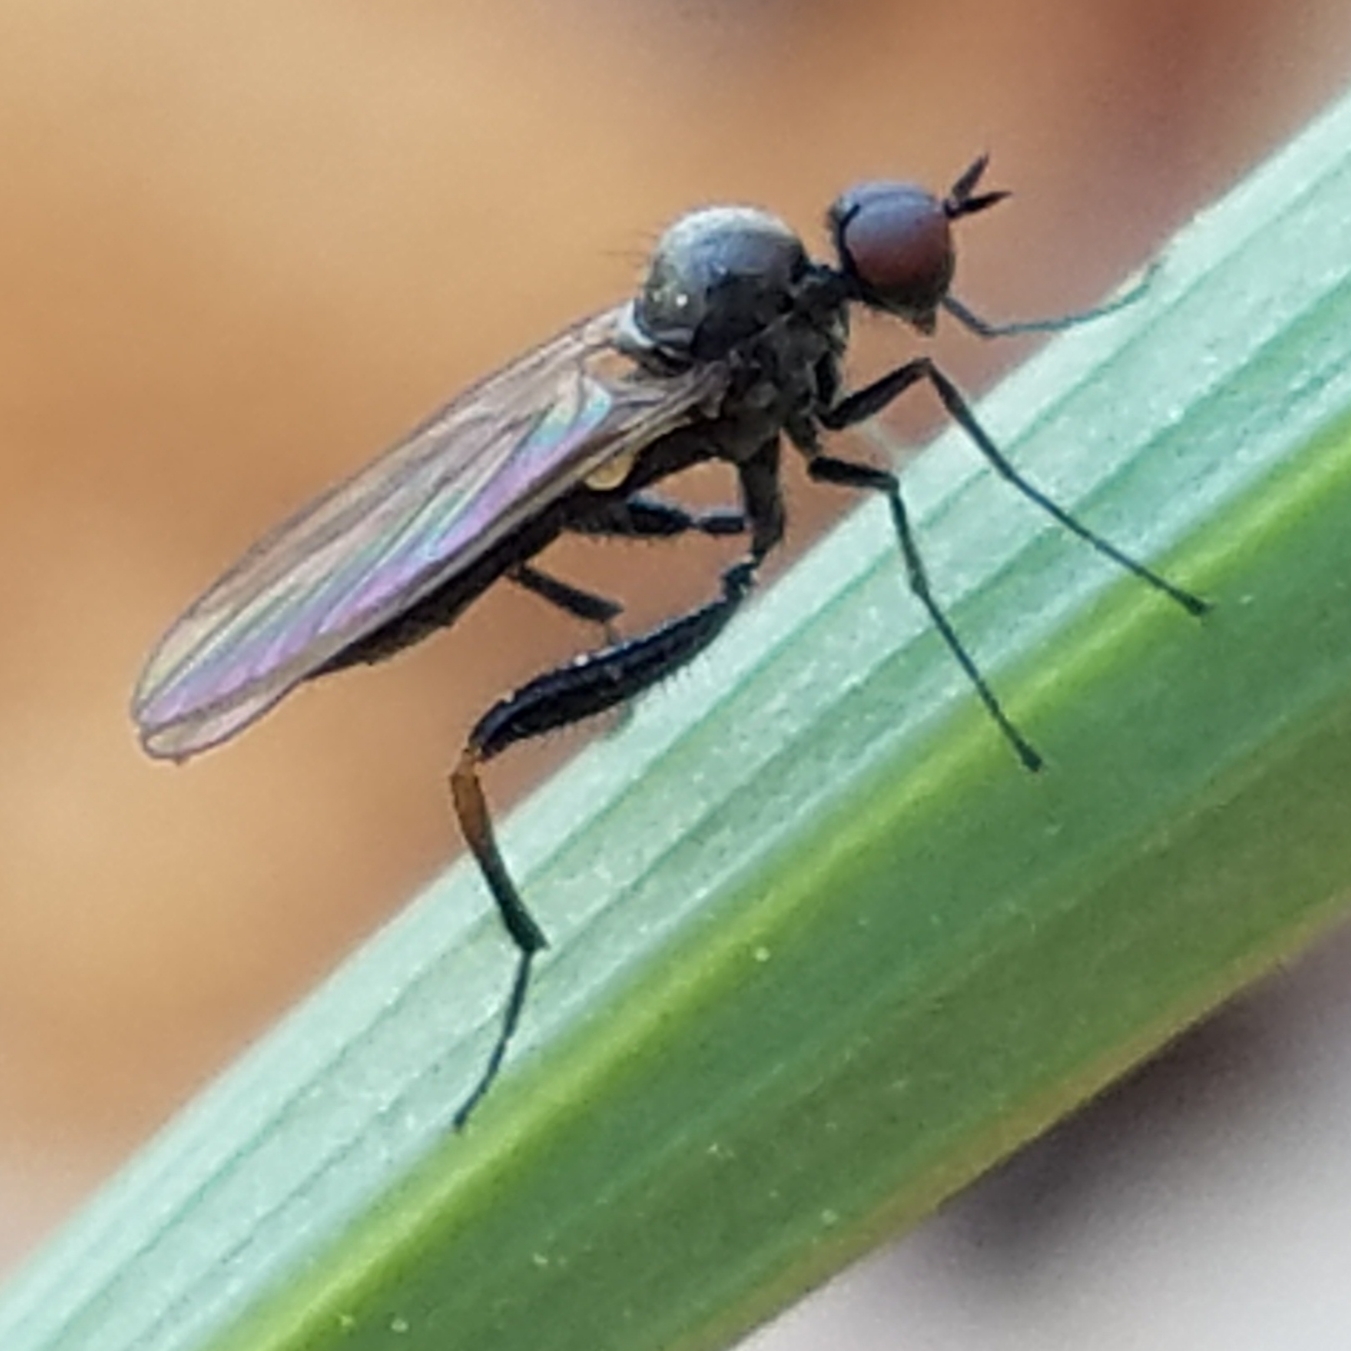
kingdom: Animalia
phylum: Arthropoda
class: Insecta
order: Diptera
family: Hybotidae
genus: Hoplocyrtoma
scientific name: Hoplocyrtoma femorata
